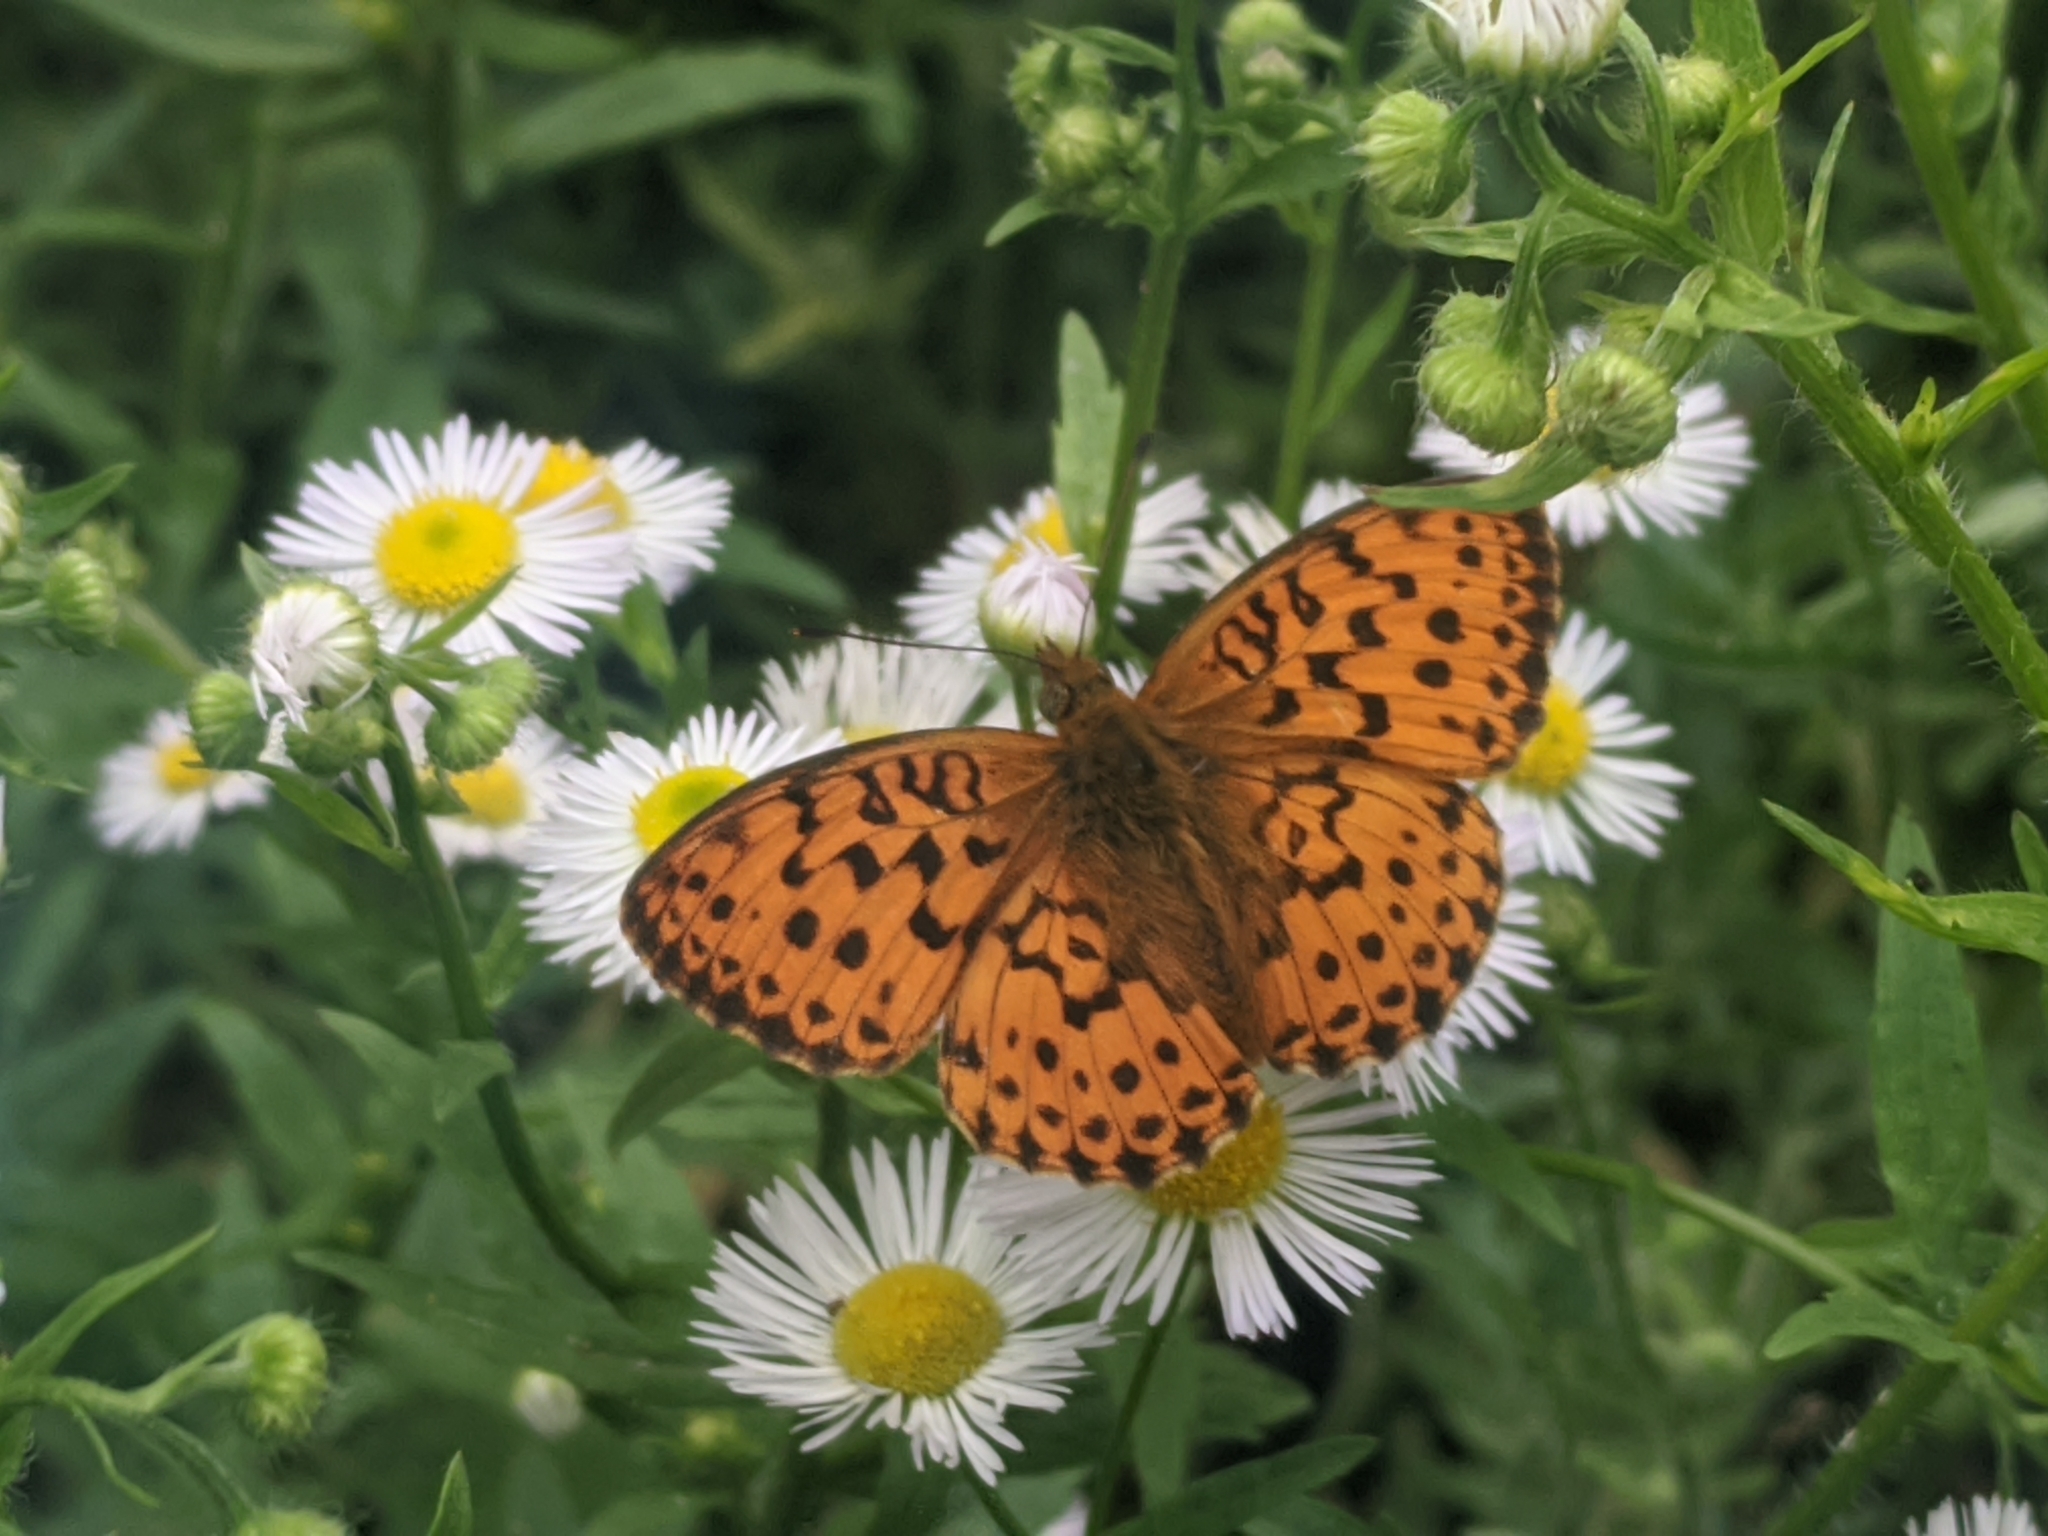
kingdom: Animalia
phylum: Arthropoda
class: Insecta
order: Lepidoptera
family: Nymphalidae
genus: Brenthis
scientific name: Brenthis daphne
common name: Marbled fritillary
